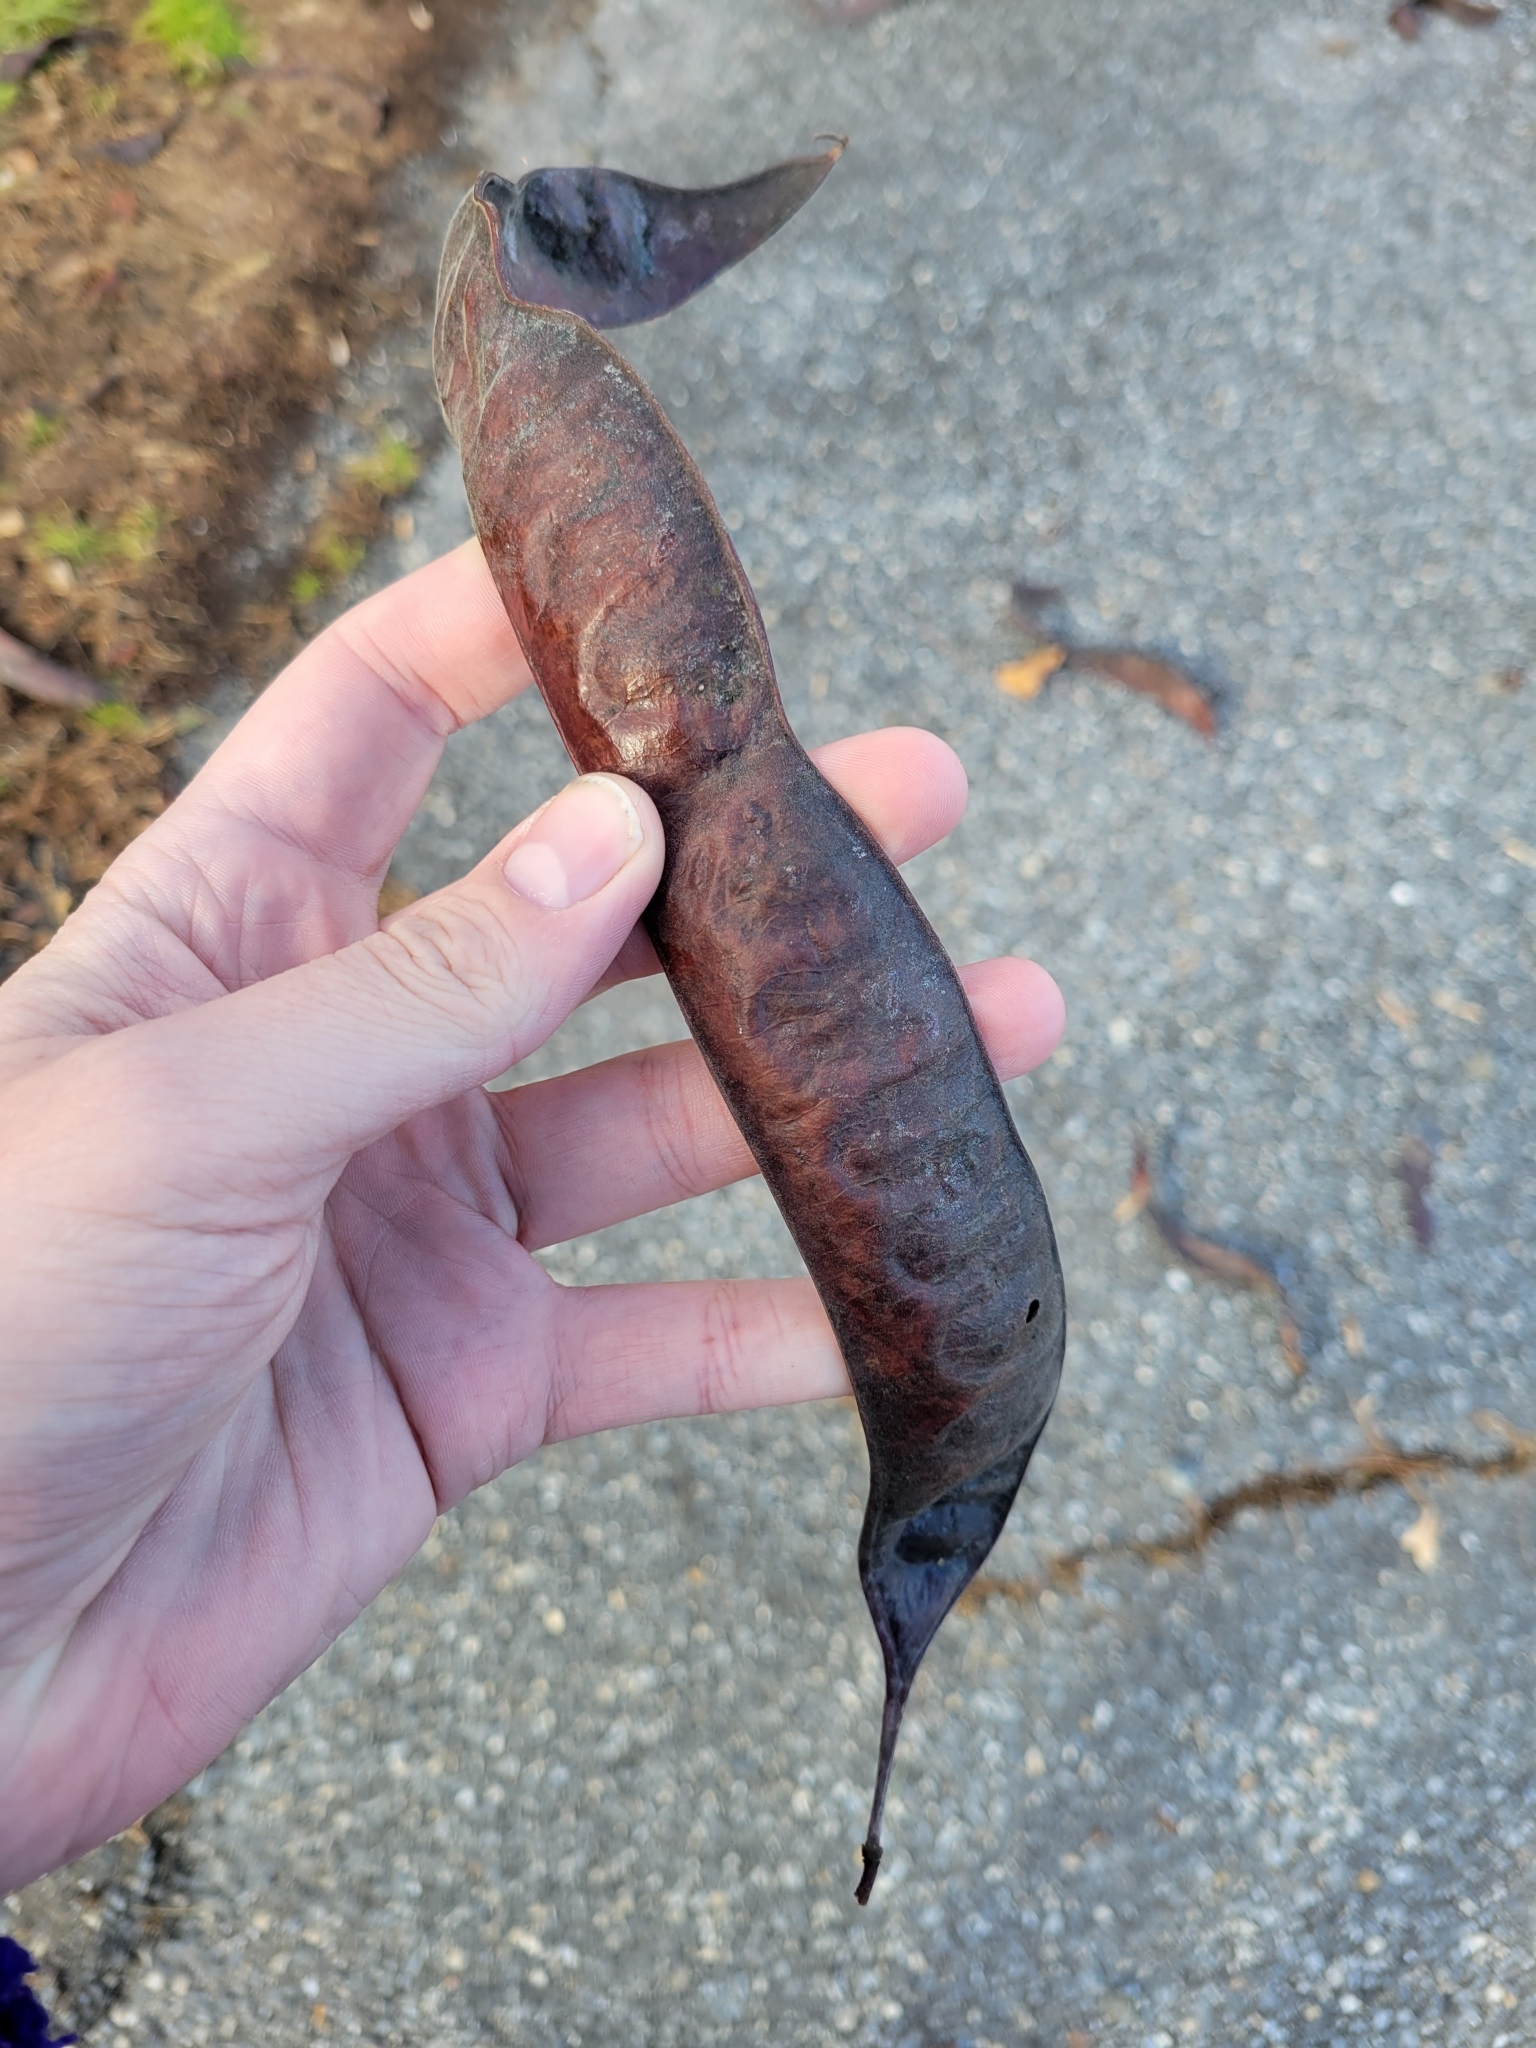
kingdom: Plantae
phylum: Tracheophyta
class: Magnoliopsida
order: Fabales
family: Fabaceae
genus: Gleditsia
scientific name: Gleditsia triacanthos
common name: Common honeylocust
